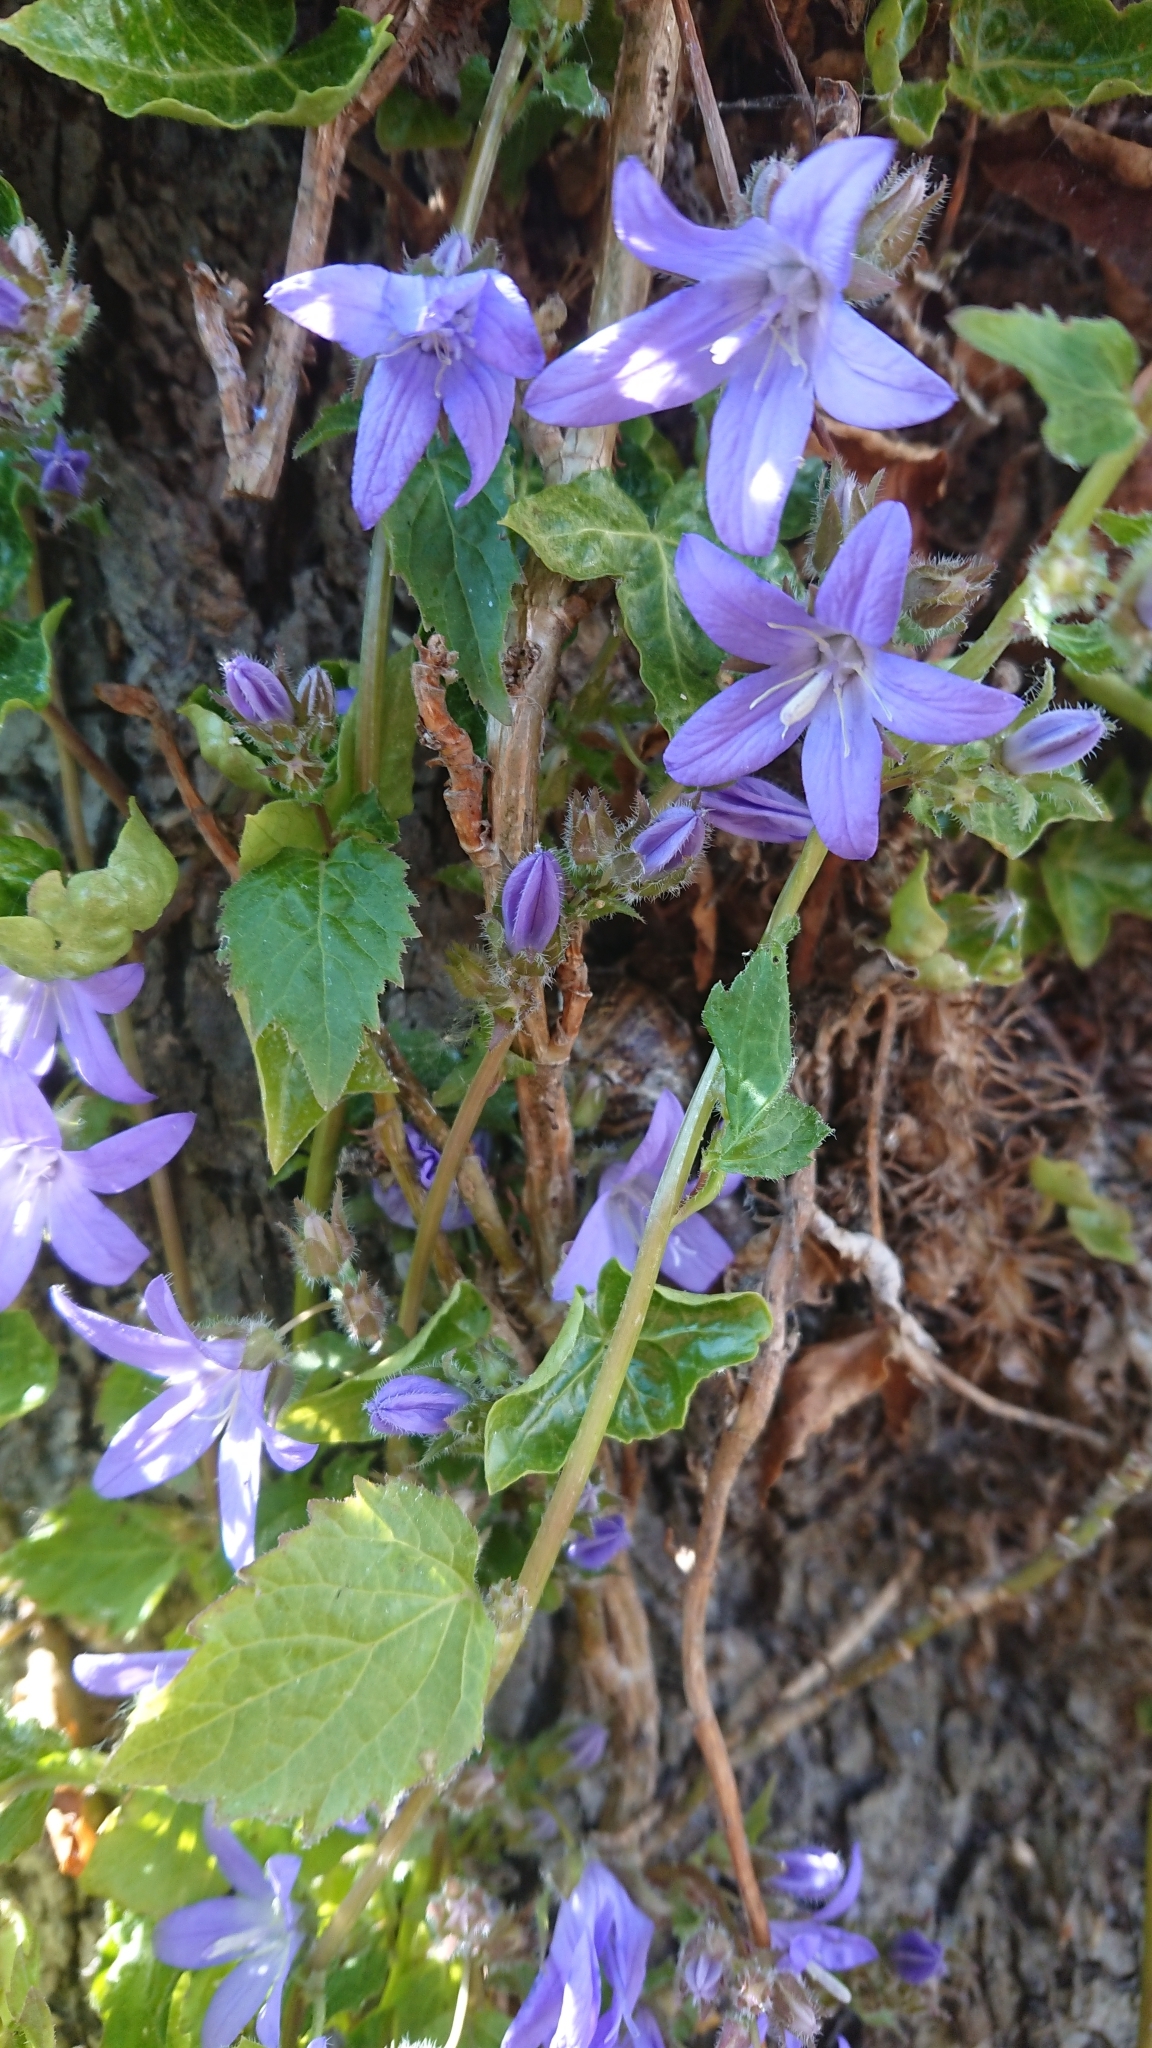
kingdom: Plantae
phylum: Tracheophyta
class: Magnoliopsida
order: Asterales
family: Campanulaceae
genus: Campanula
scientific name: Campanula poscharskyana
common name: Trailing bellflower
